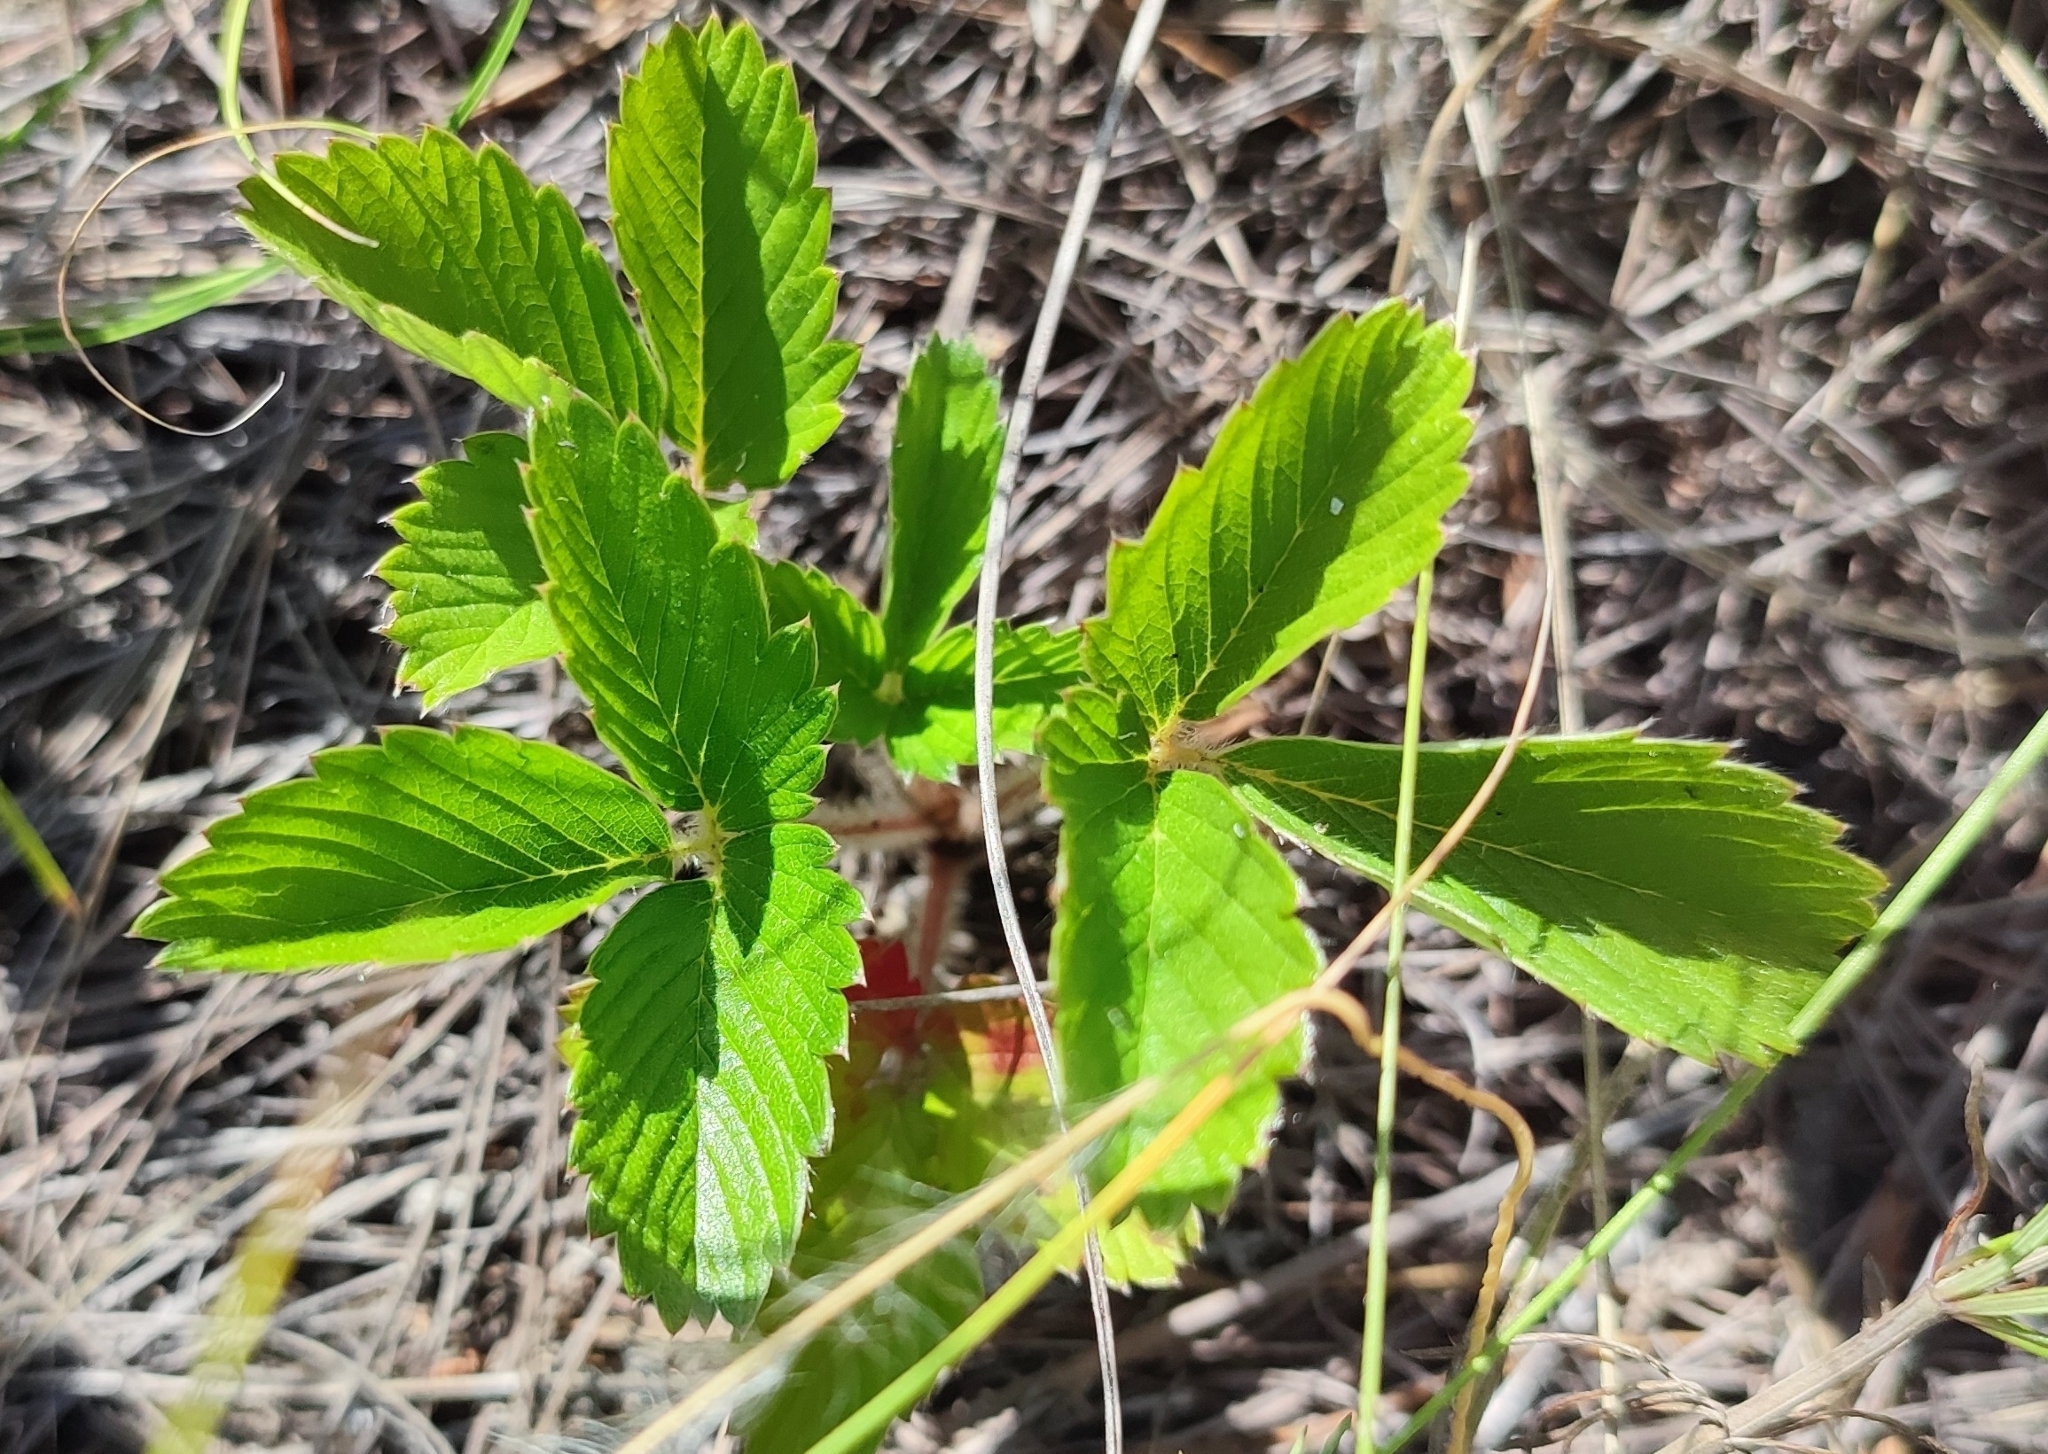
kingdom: Plantae
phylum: Tracheophyta
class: Magnoliopsida
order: Rosales
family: Rosaceae
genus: Fragaria
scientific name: Fragaria viridis
